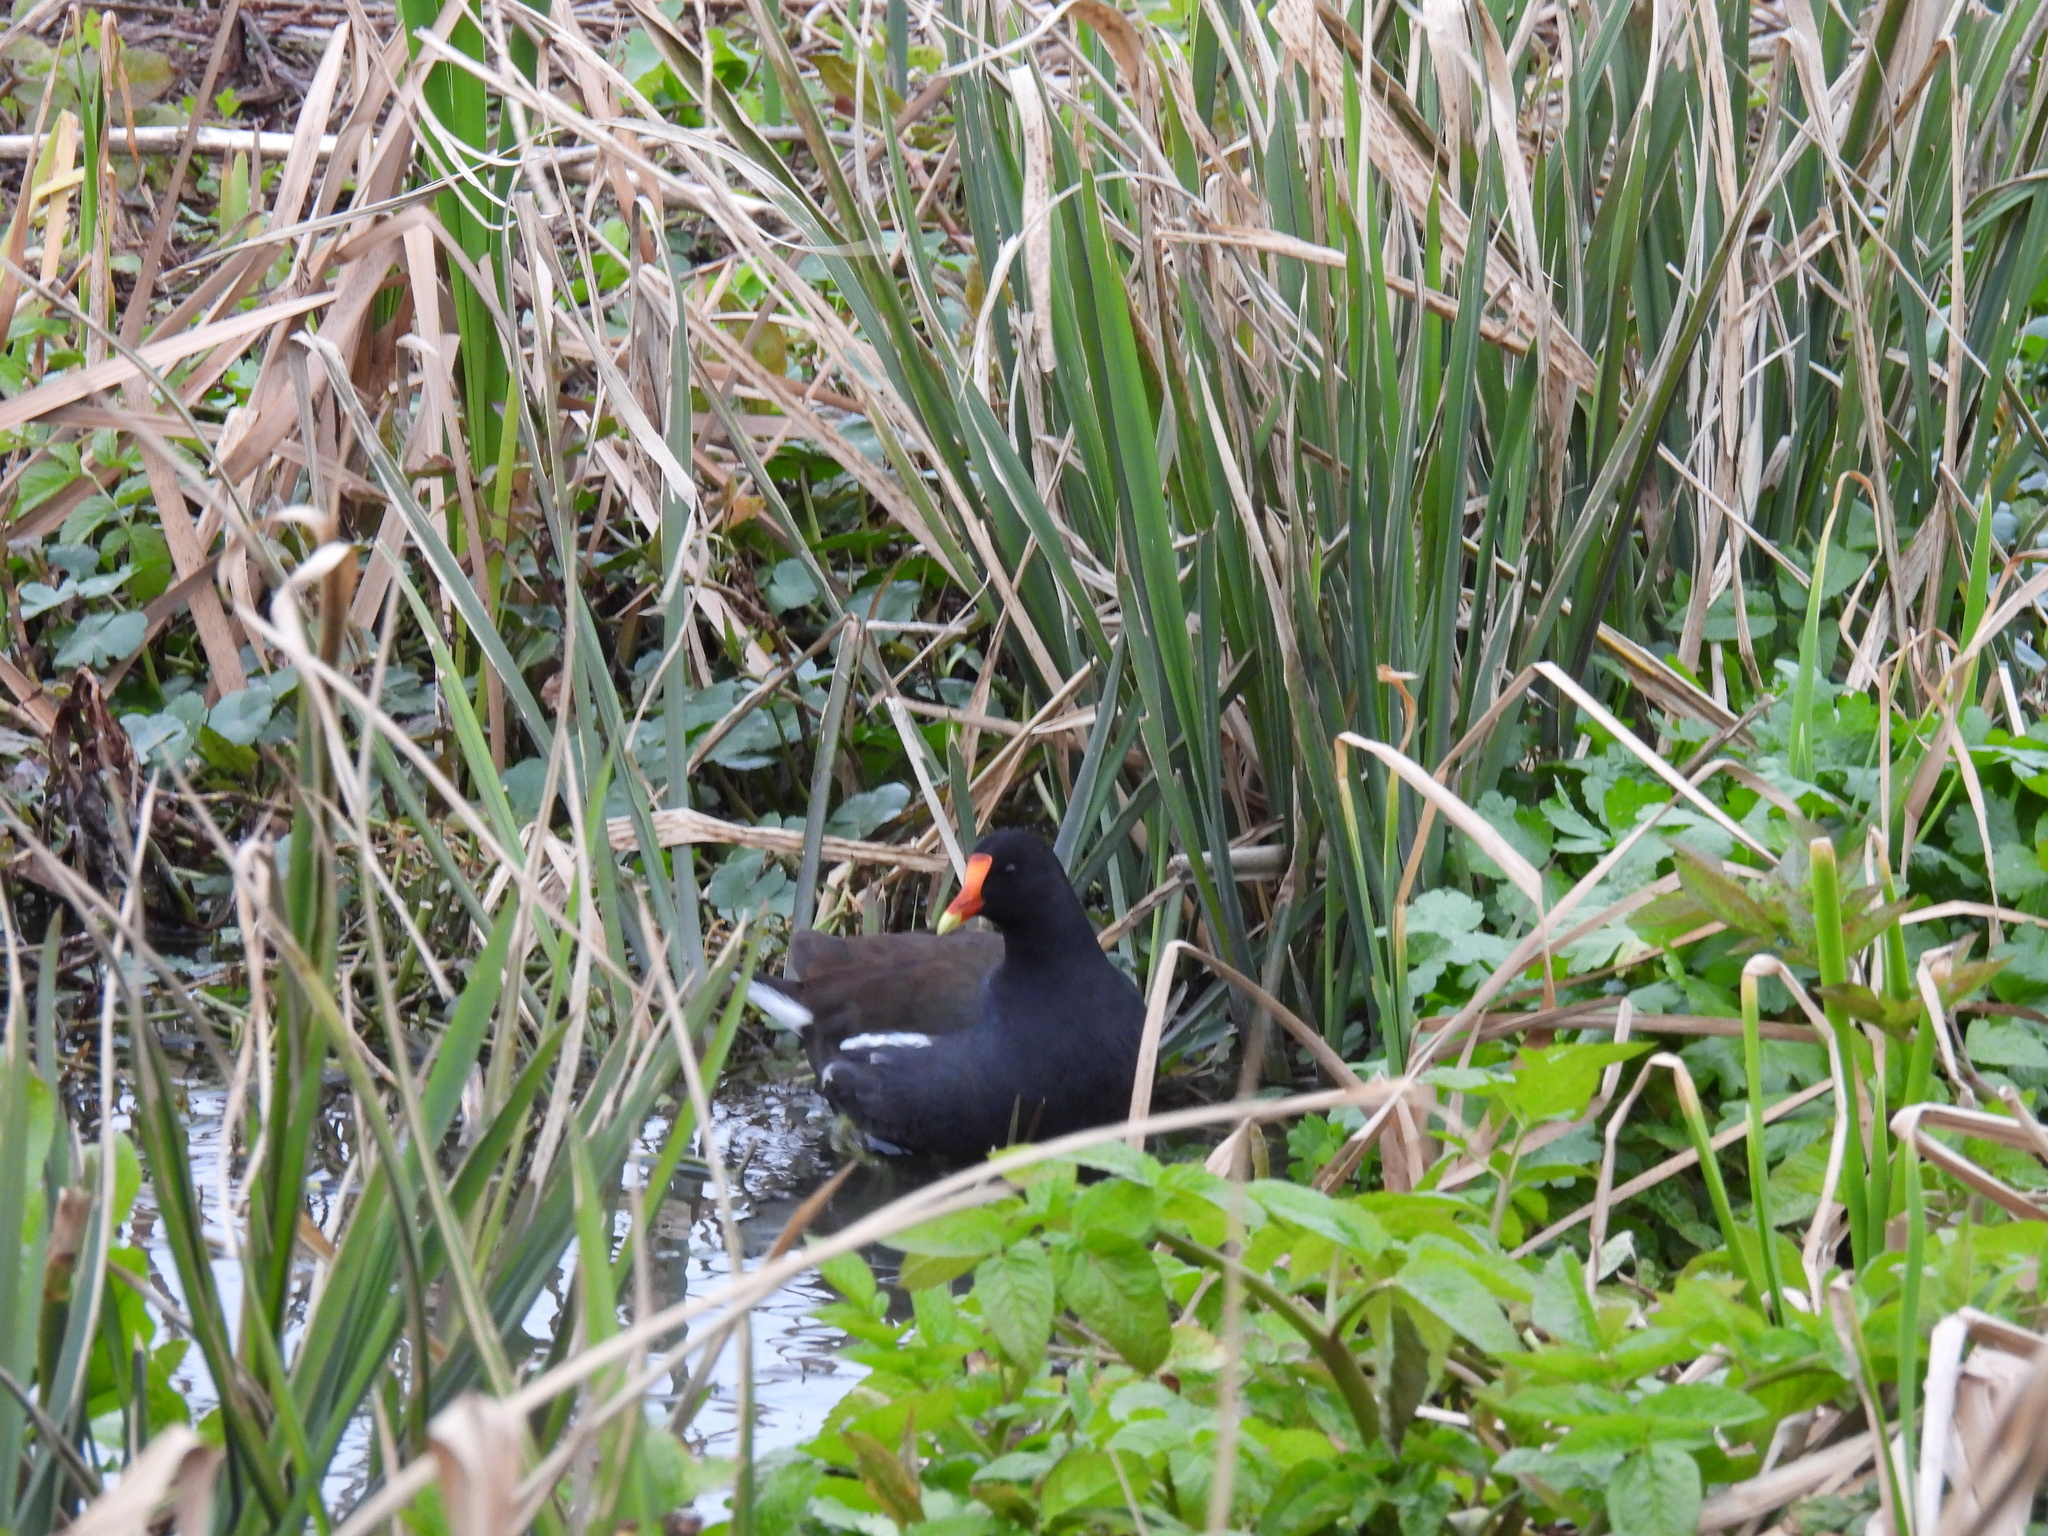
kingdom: Animalia
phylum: Chordata
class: Aves
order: Gruiformes
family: Rallidae
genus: Gallinula
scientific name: Gallinula chloropus
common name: Common moorhen
